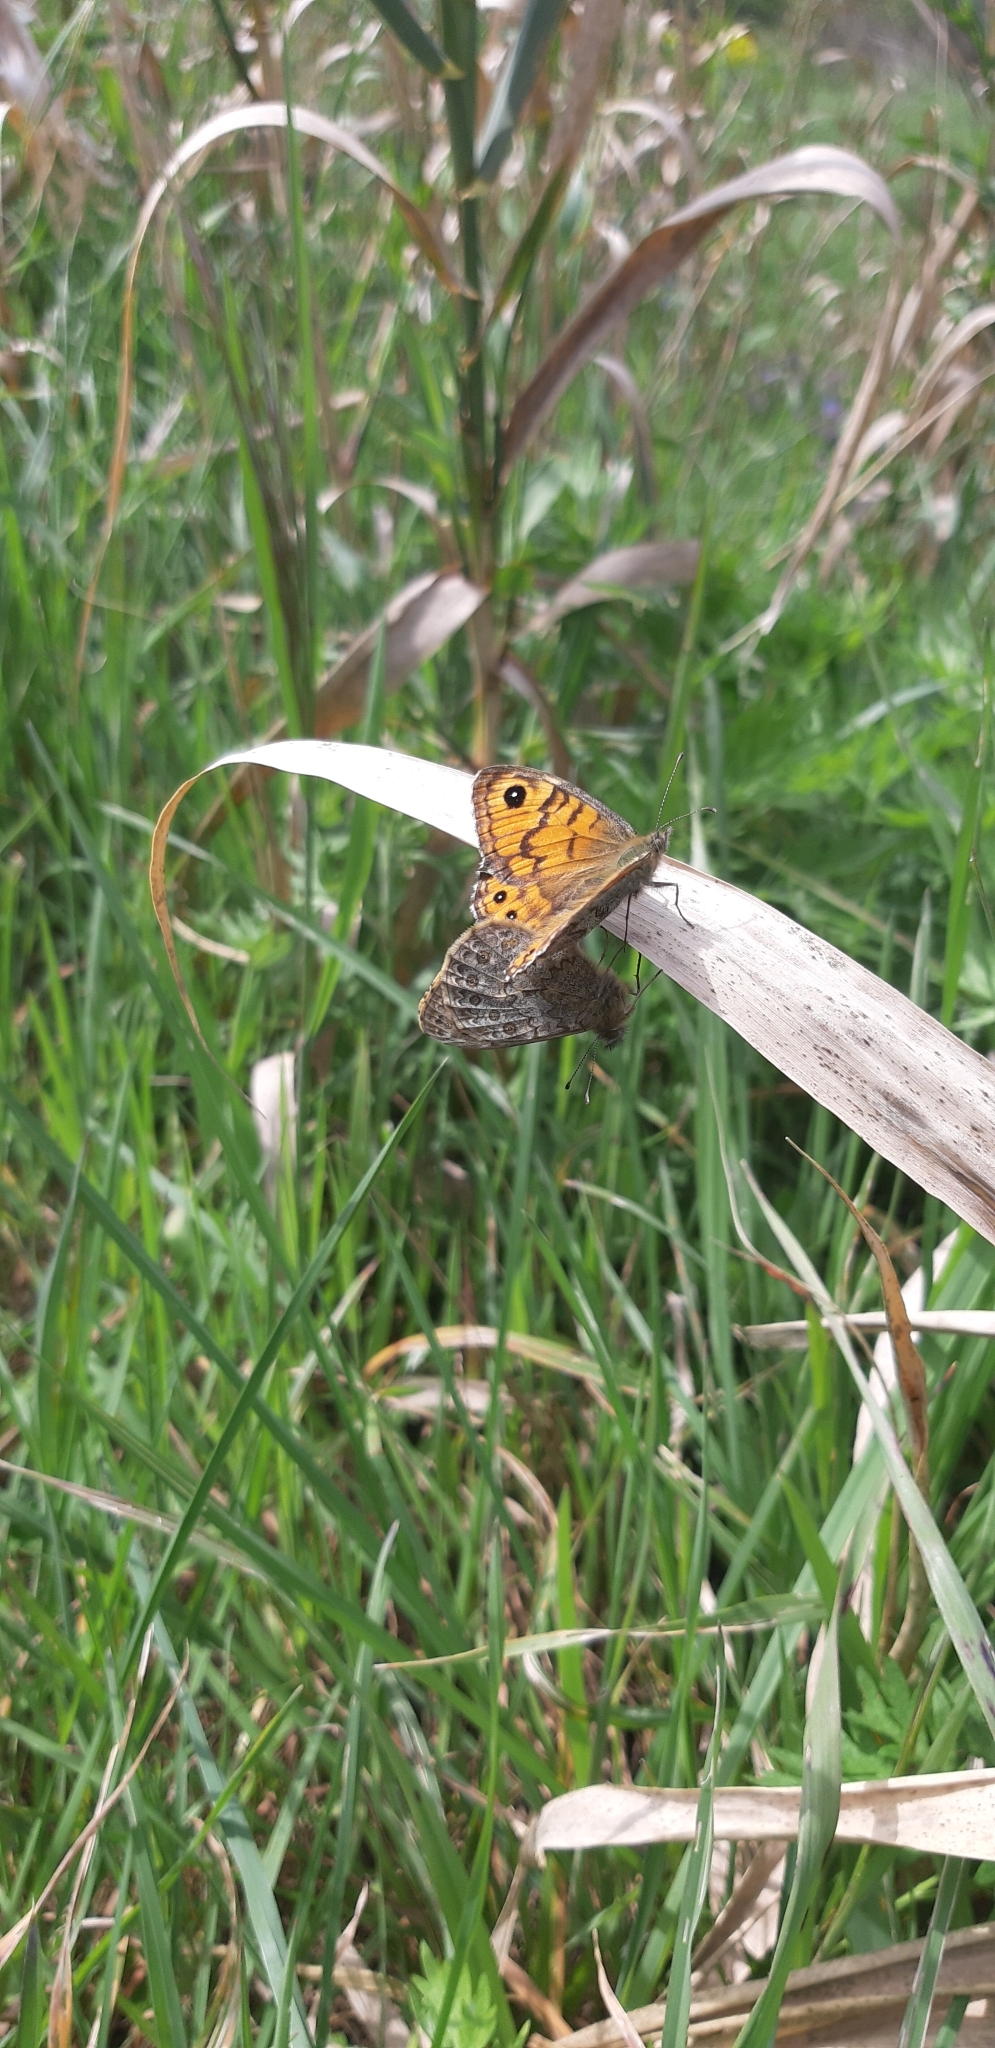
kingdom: Animalia
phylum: Arthropoda
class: Insecta
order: Lepidoptera
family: Nymphalidae
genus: Pararge
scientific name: Pararge Lasiommata megera
